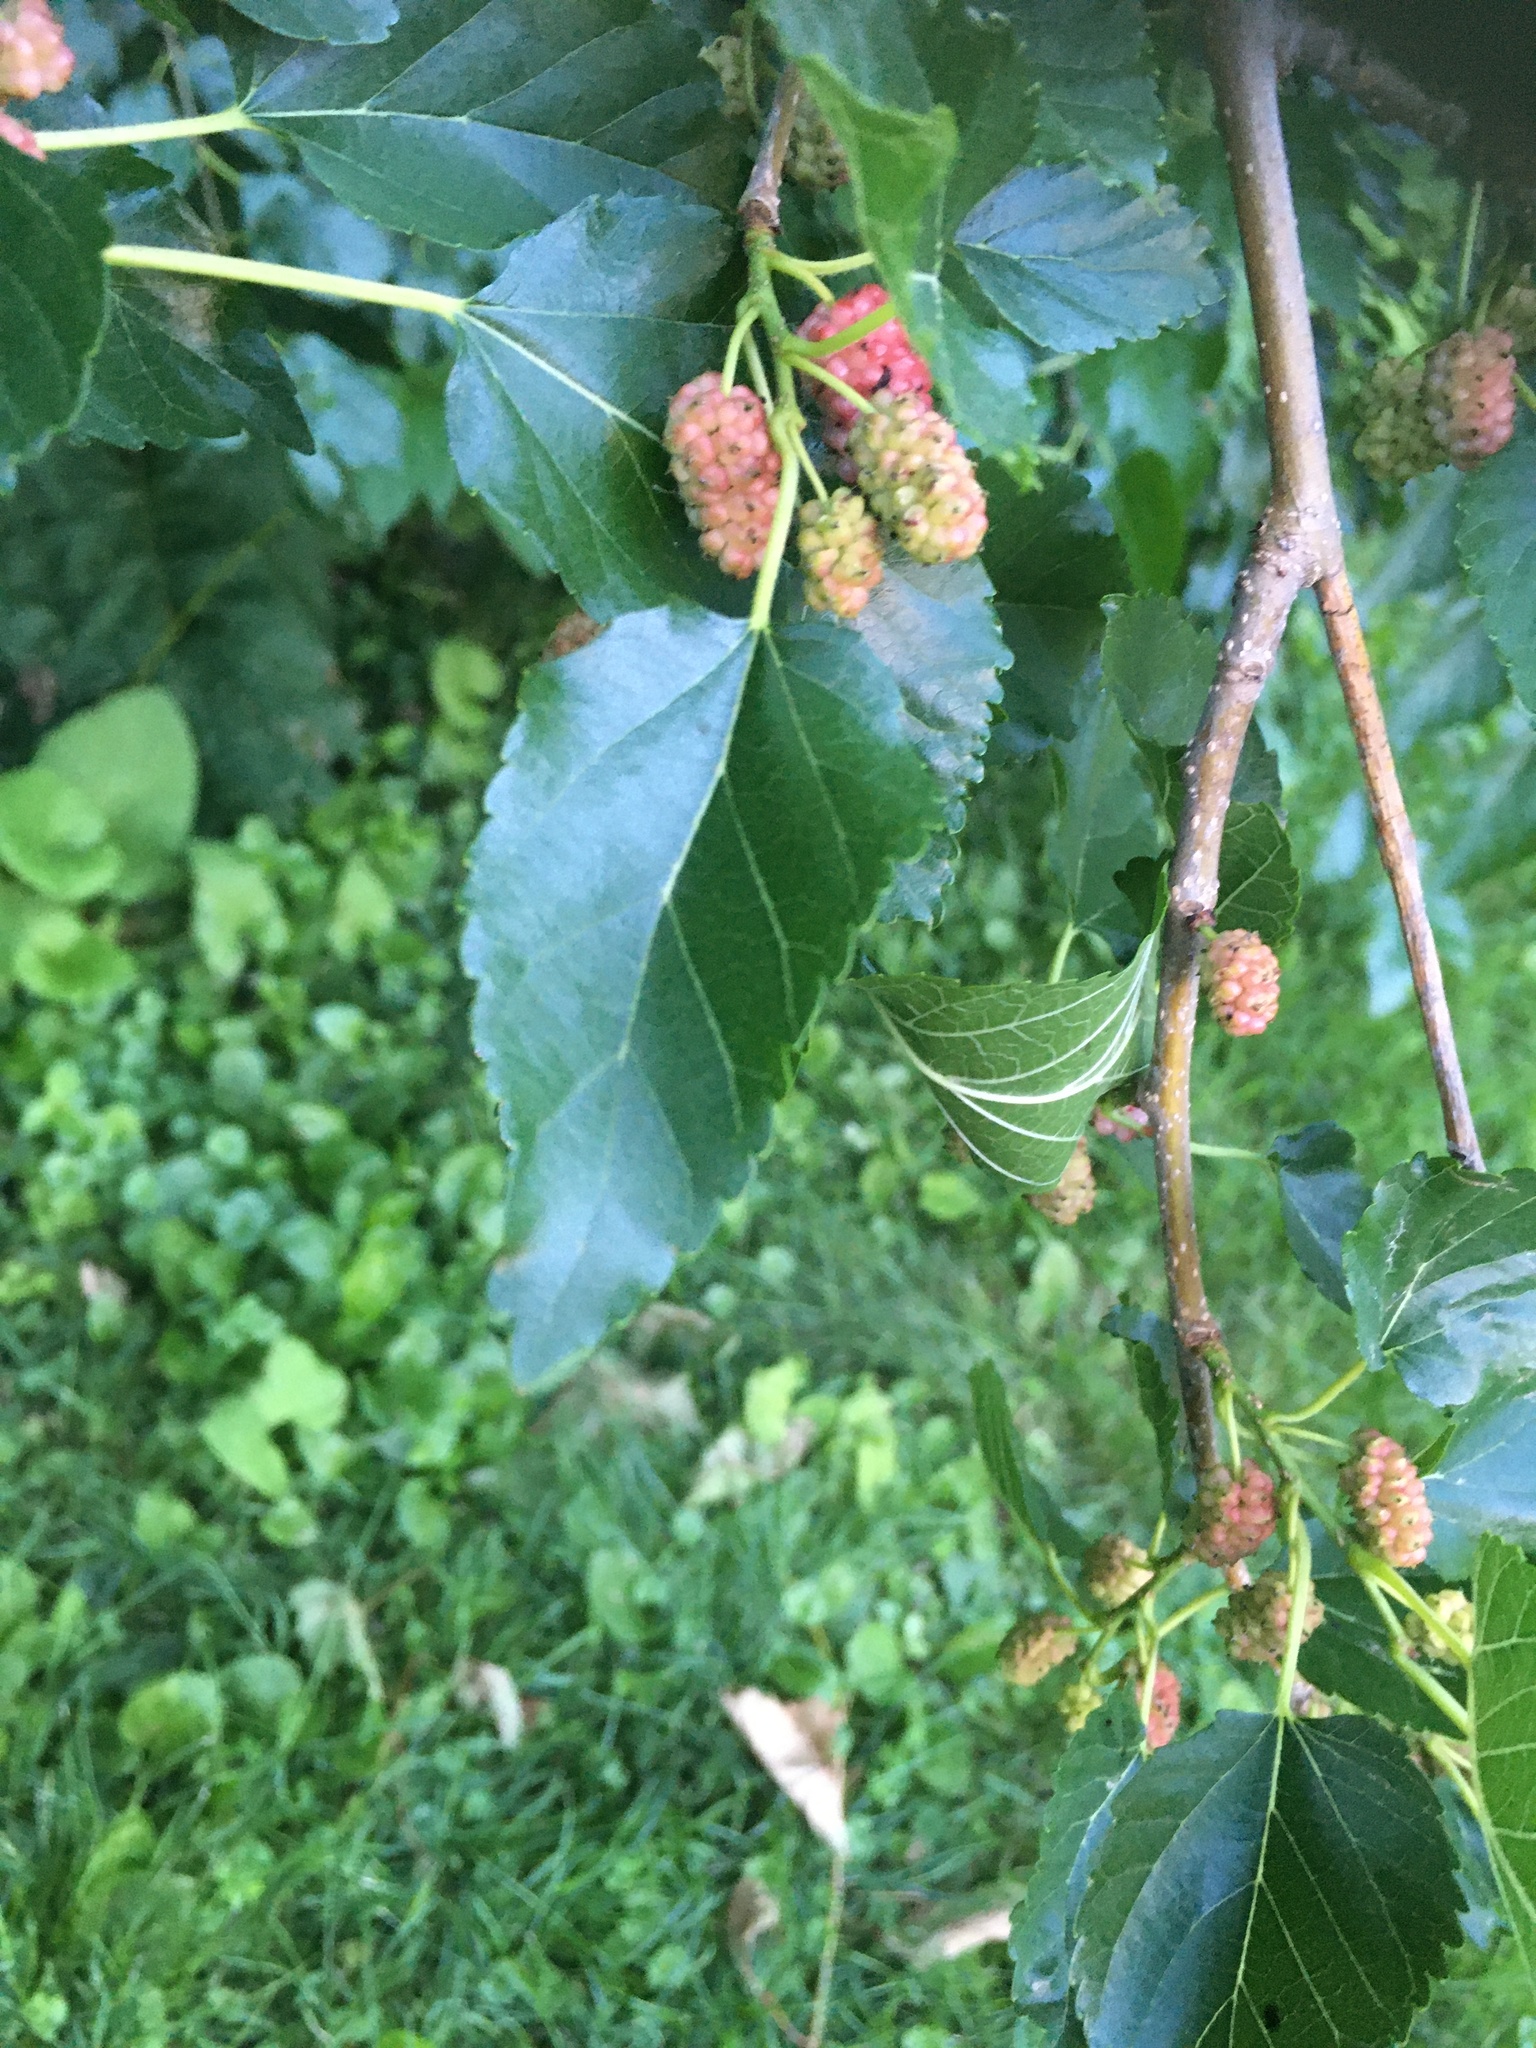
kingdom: Plantae
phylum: Tracheophyta
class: Magnoliopsida
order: Rosales
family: Moraceae
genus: Morus
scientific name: Morus alba
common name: White mulberry
